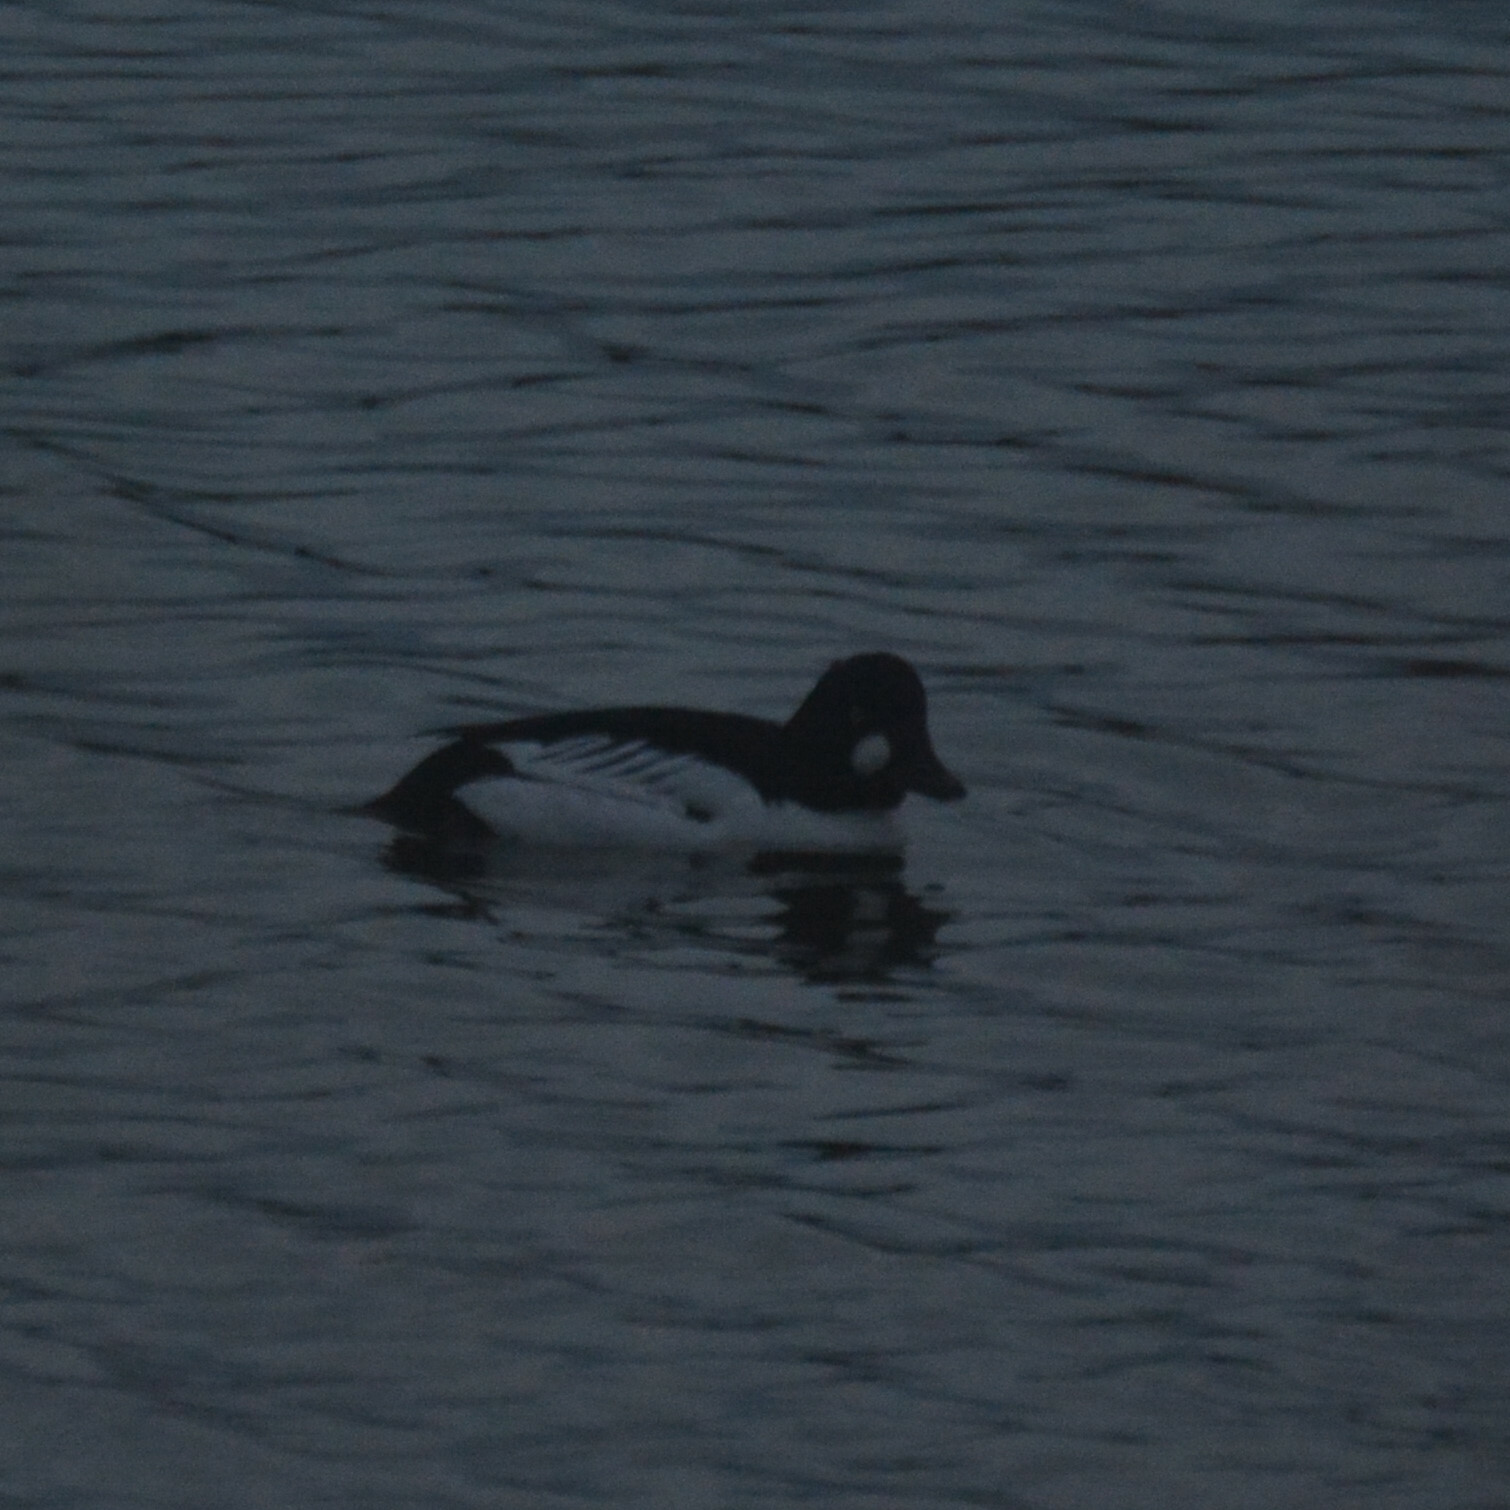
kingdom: Animalia
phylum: Chordata
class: Aves
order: Anseriformes
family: Anatidae
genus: Bucephala
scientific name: Bucephala clangula
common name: Common goldeneye
